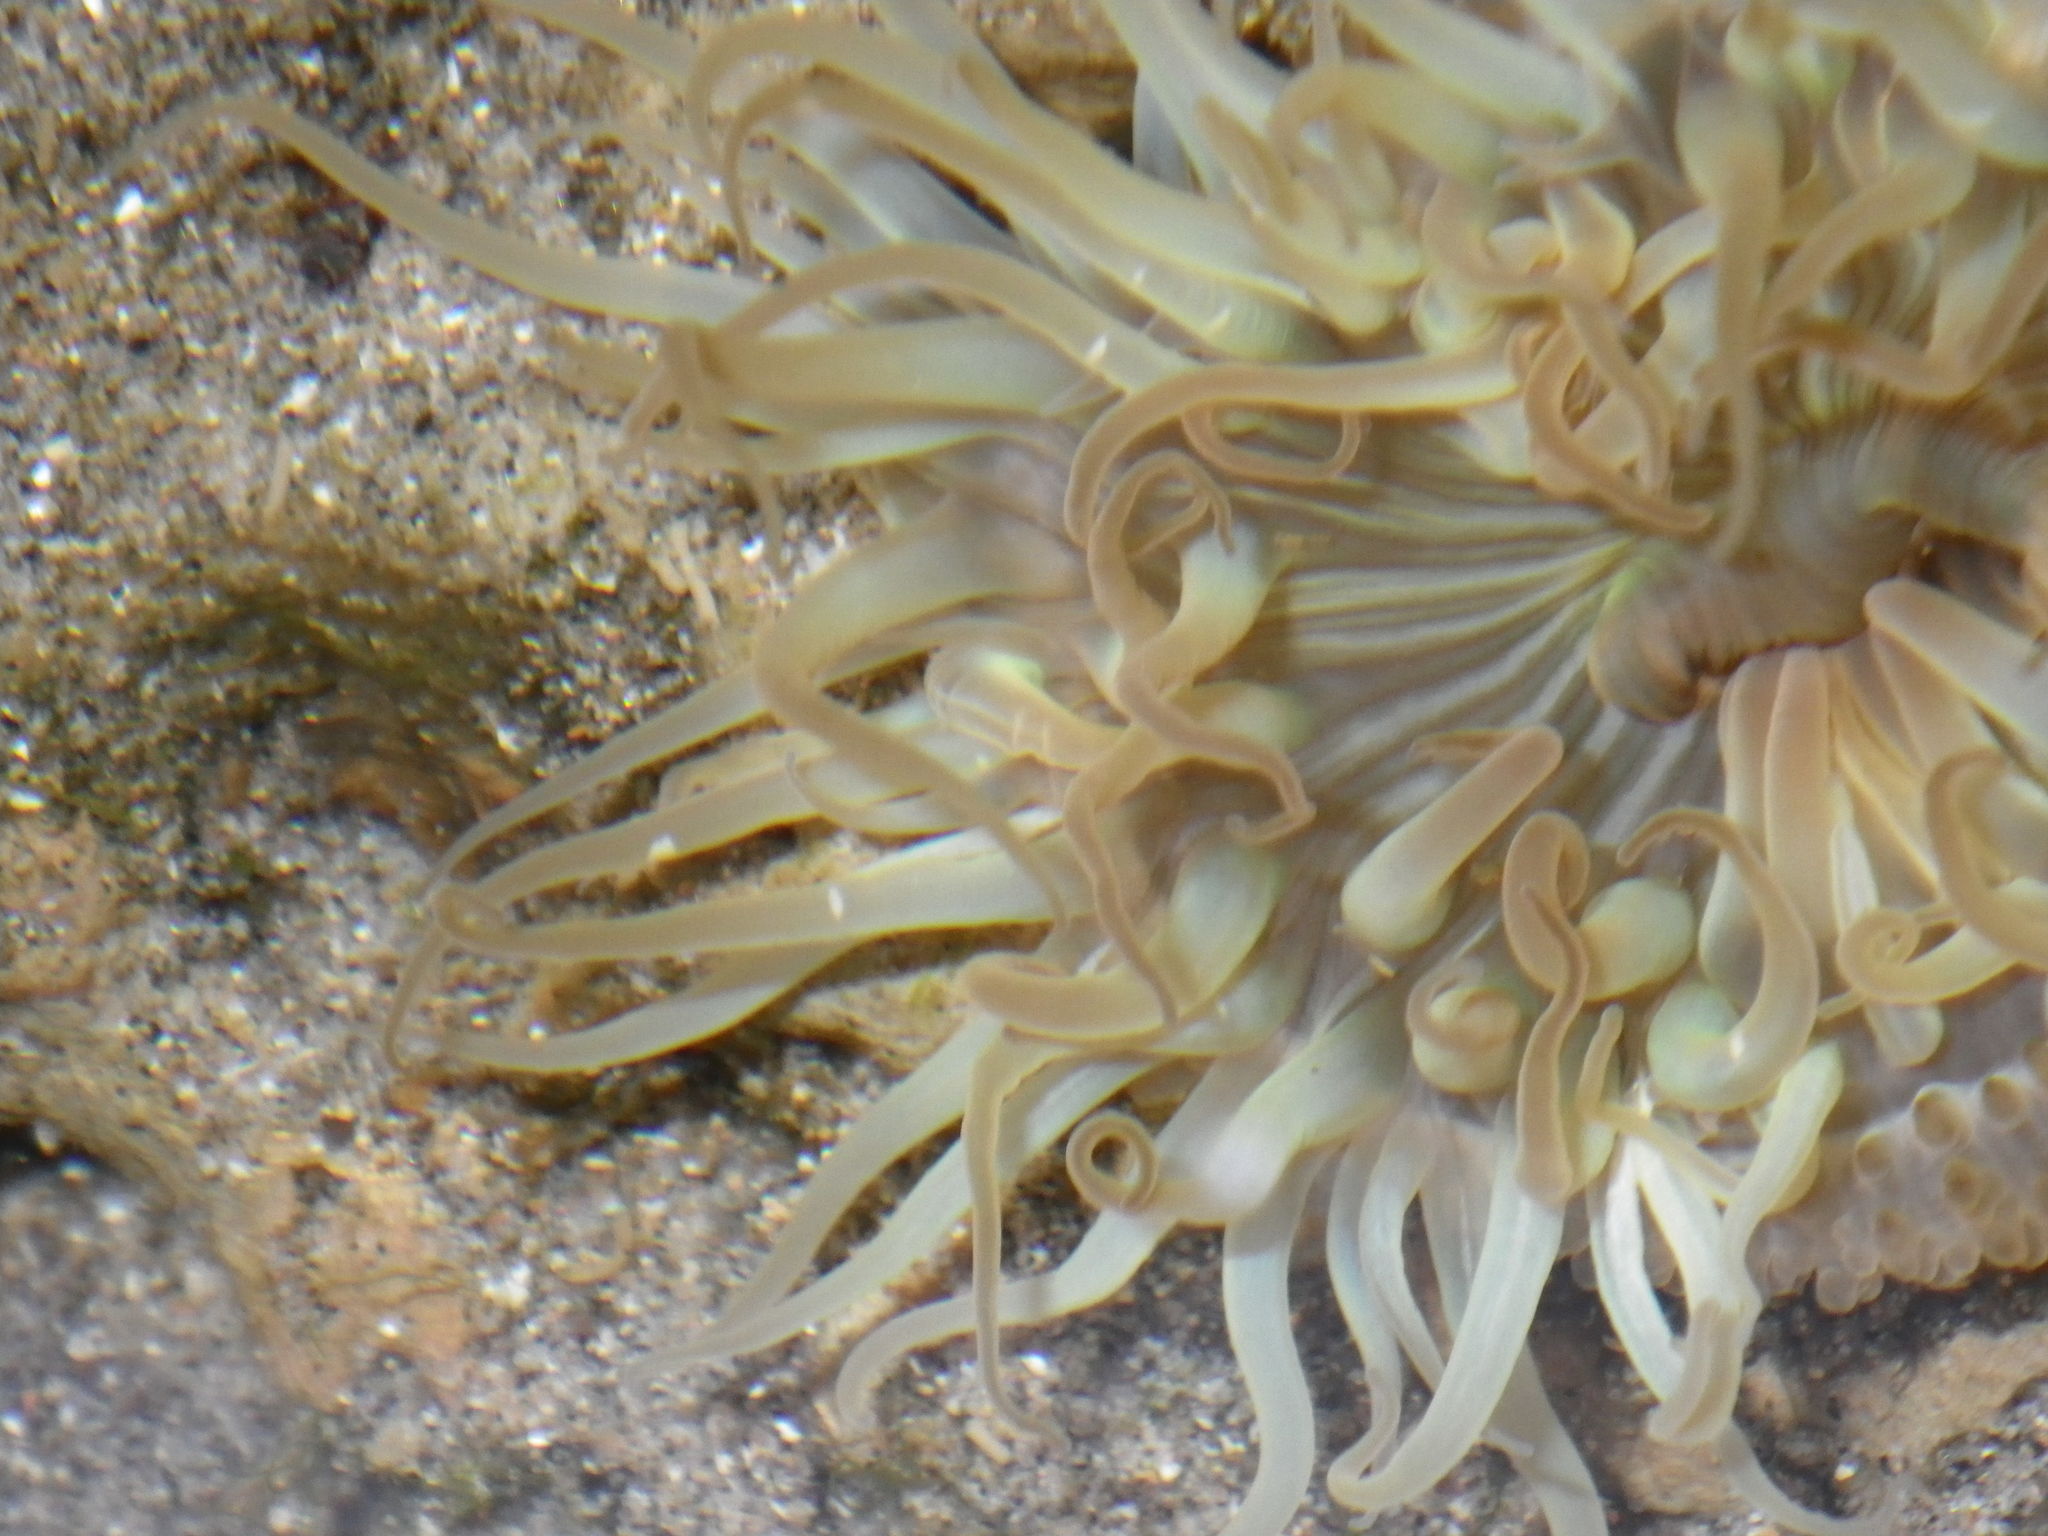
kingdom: Animalia
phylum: Cnidaria
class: Anthozoa
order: Actiniaria
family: Actiniidae
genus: Anthopleura
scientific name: Anthopleura sola
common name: Sun anemone
